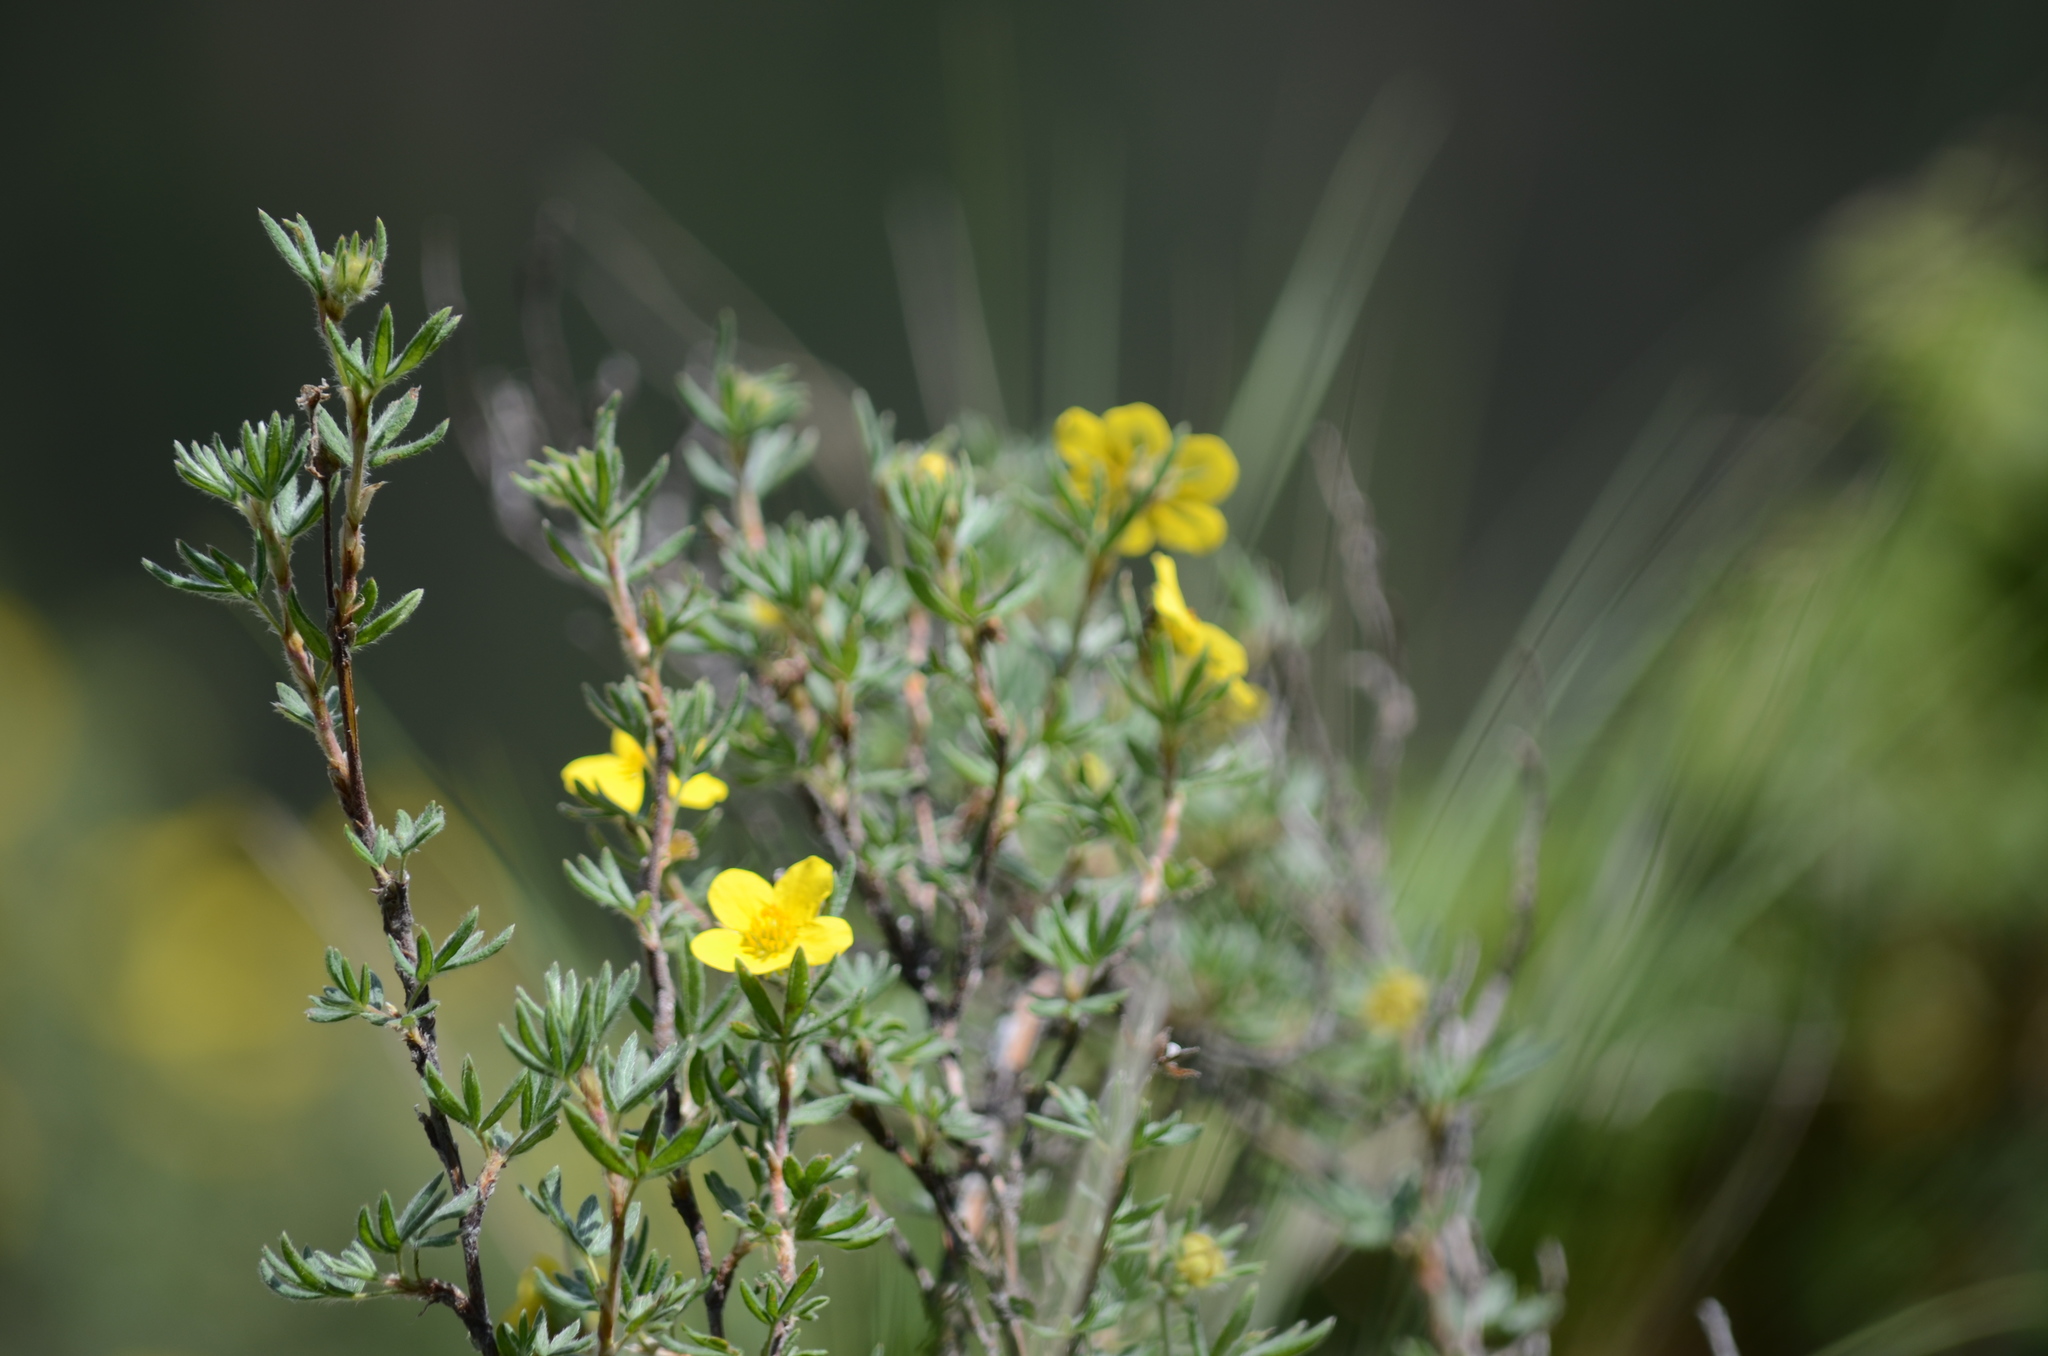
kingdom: Plantae
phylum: Tracheophyta
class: Magnoliopsida
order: Rosales
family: Rosaceae
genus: Dasiphora
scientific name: Dasiphora fruticosa
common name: Shrubby cinquefoil
